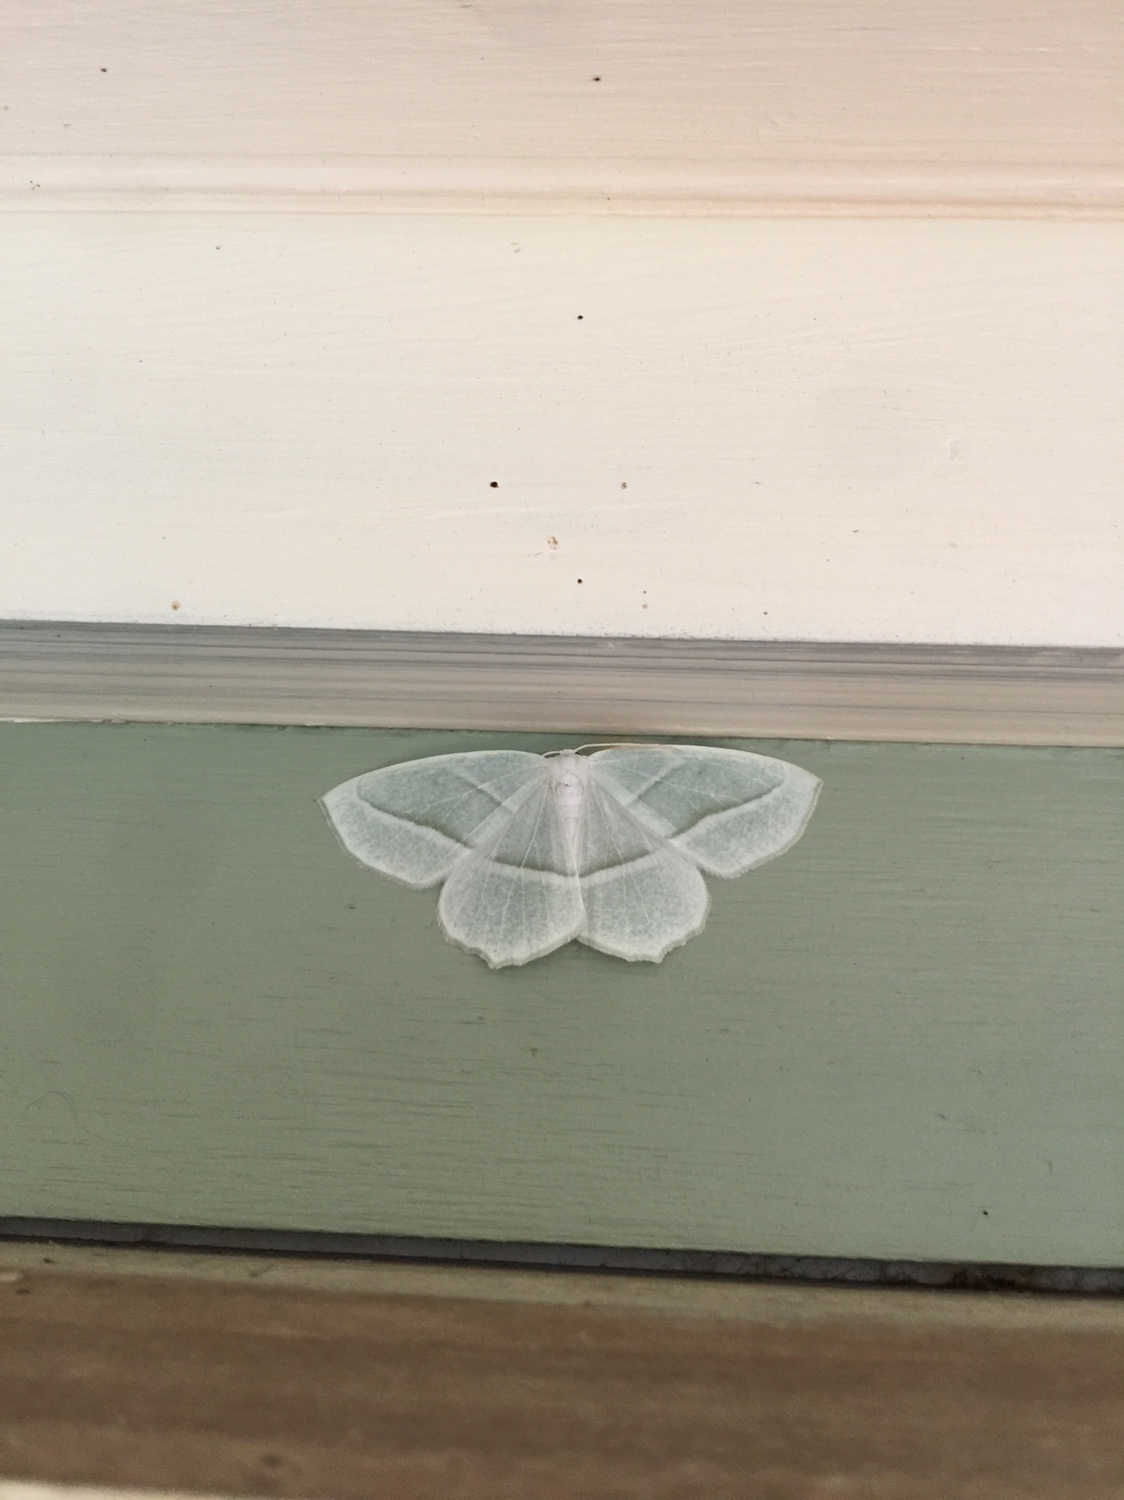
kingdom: Animalia
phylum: Arthropoda
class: Insecta
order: Lepidoptera
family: Geometridae
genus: Campaea
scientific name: Campaea perlata
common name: Fringed looper
